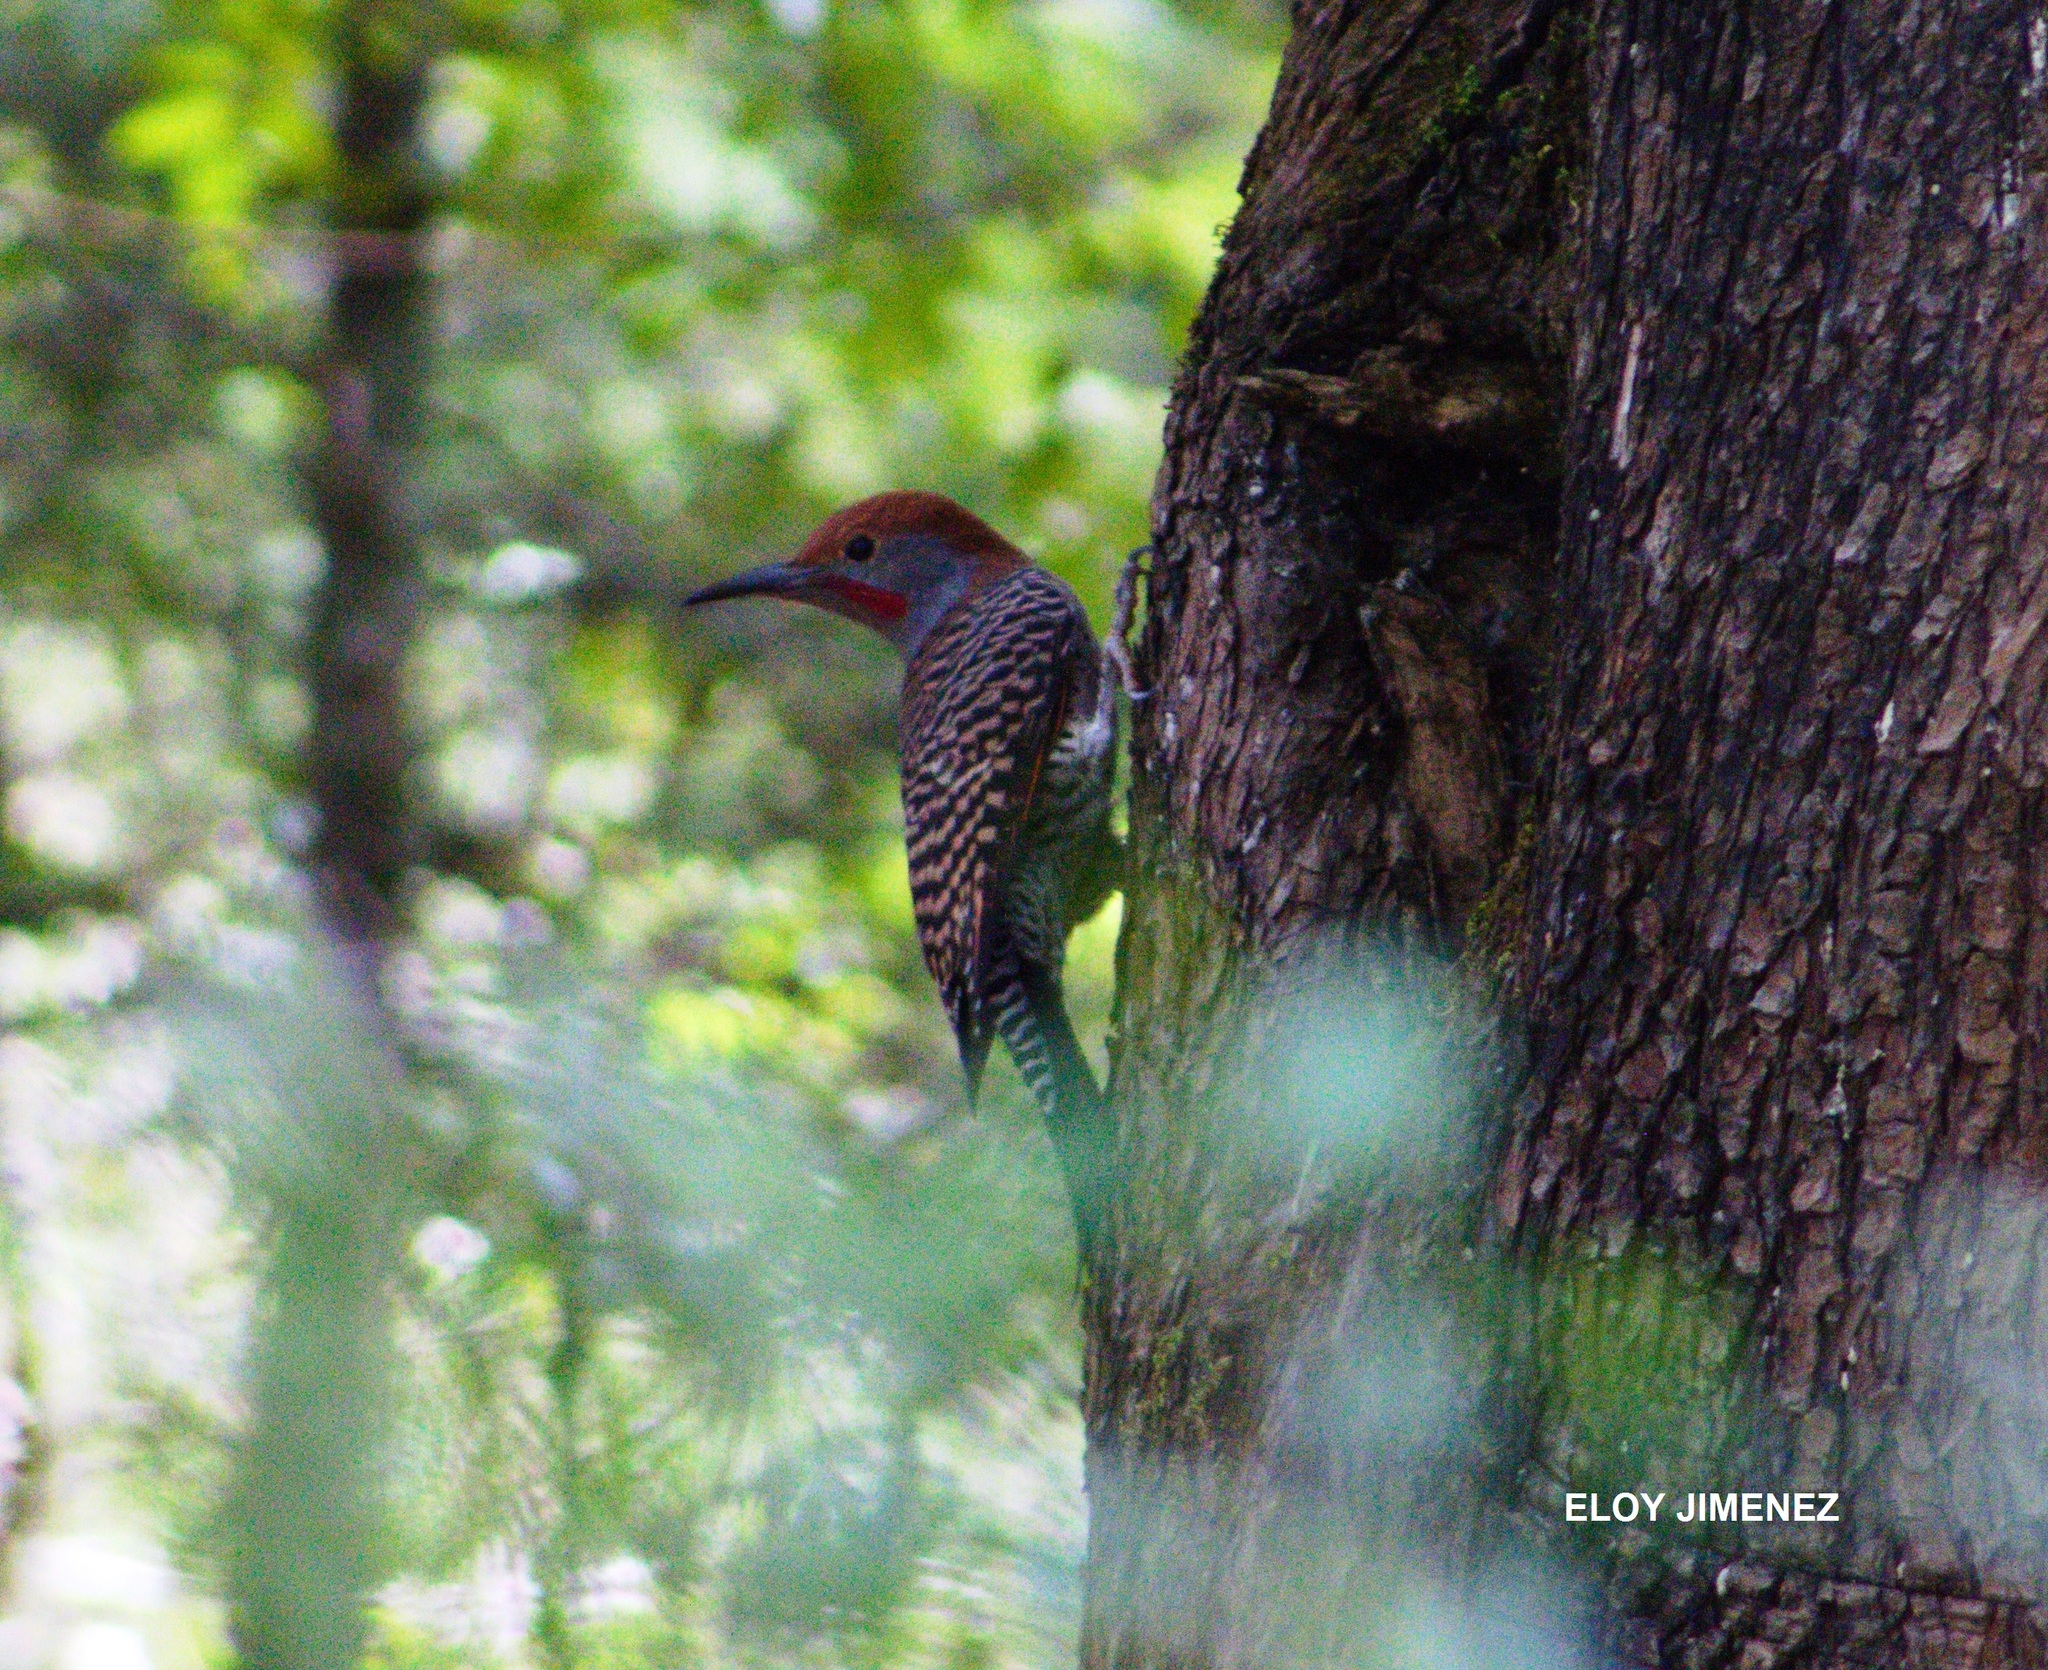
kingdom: Animalia
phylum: Chordata
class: Aves
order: Piciformes
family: Picidae
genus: Colaptes
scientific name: Colaptes auratus
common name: Northern flicker
